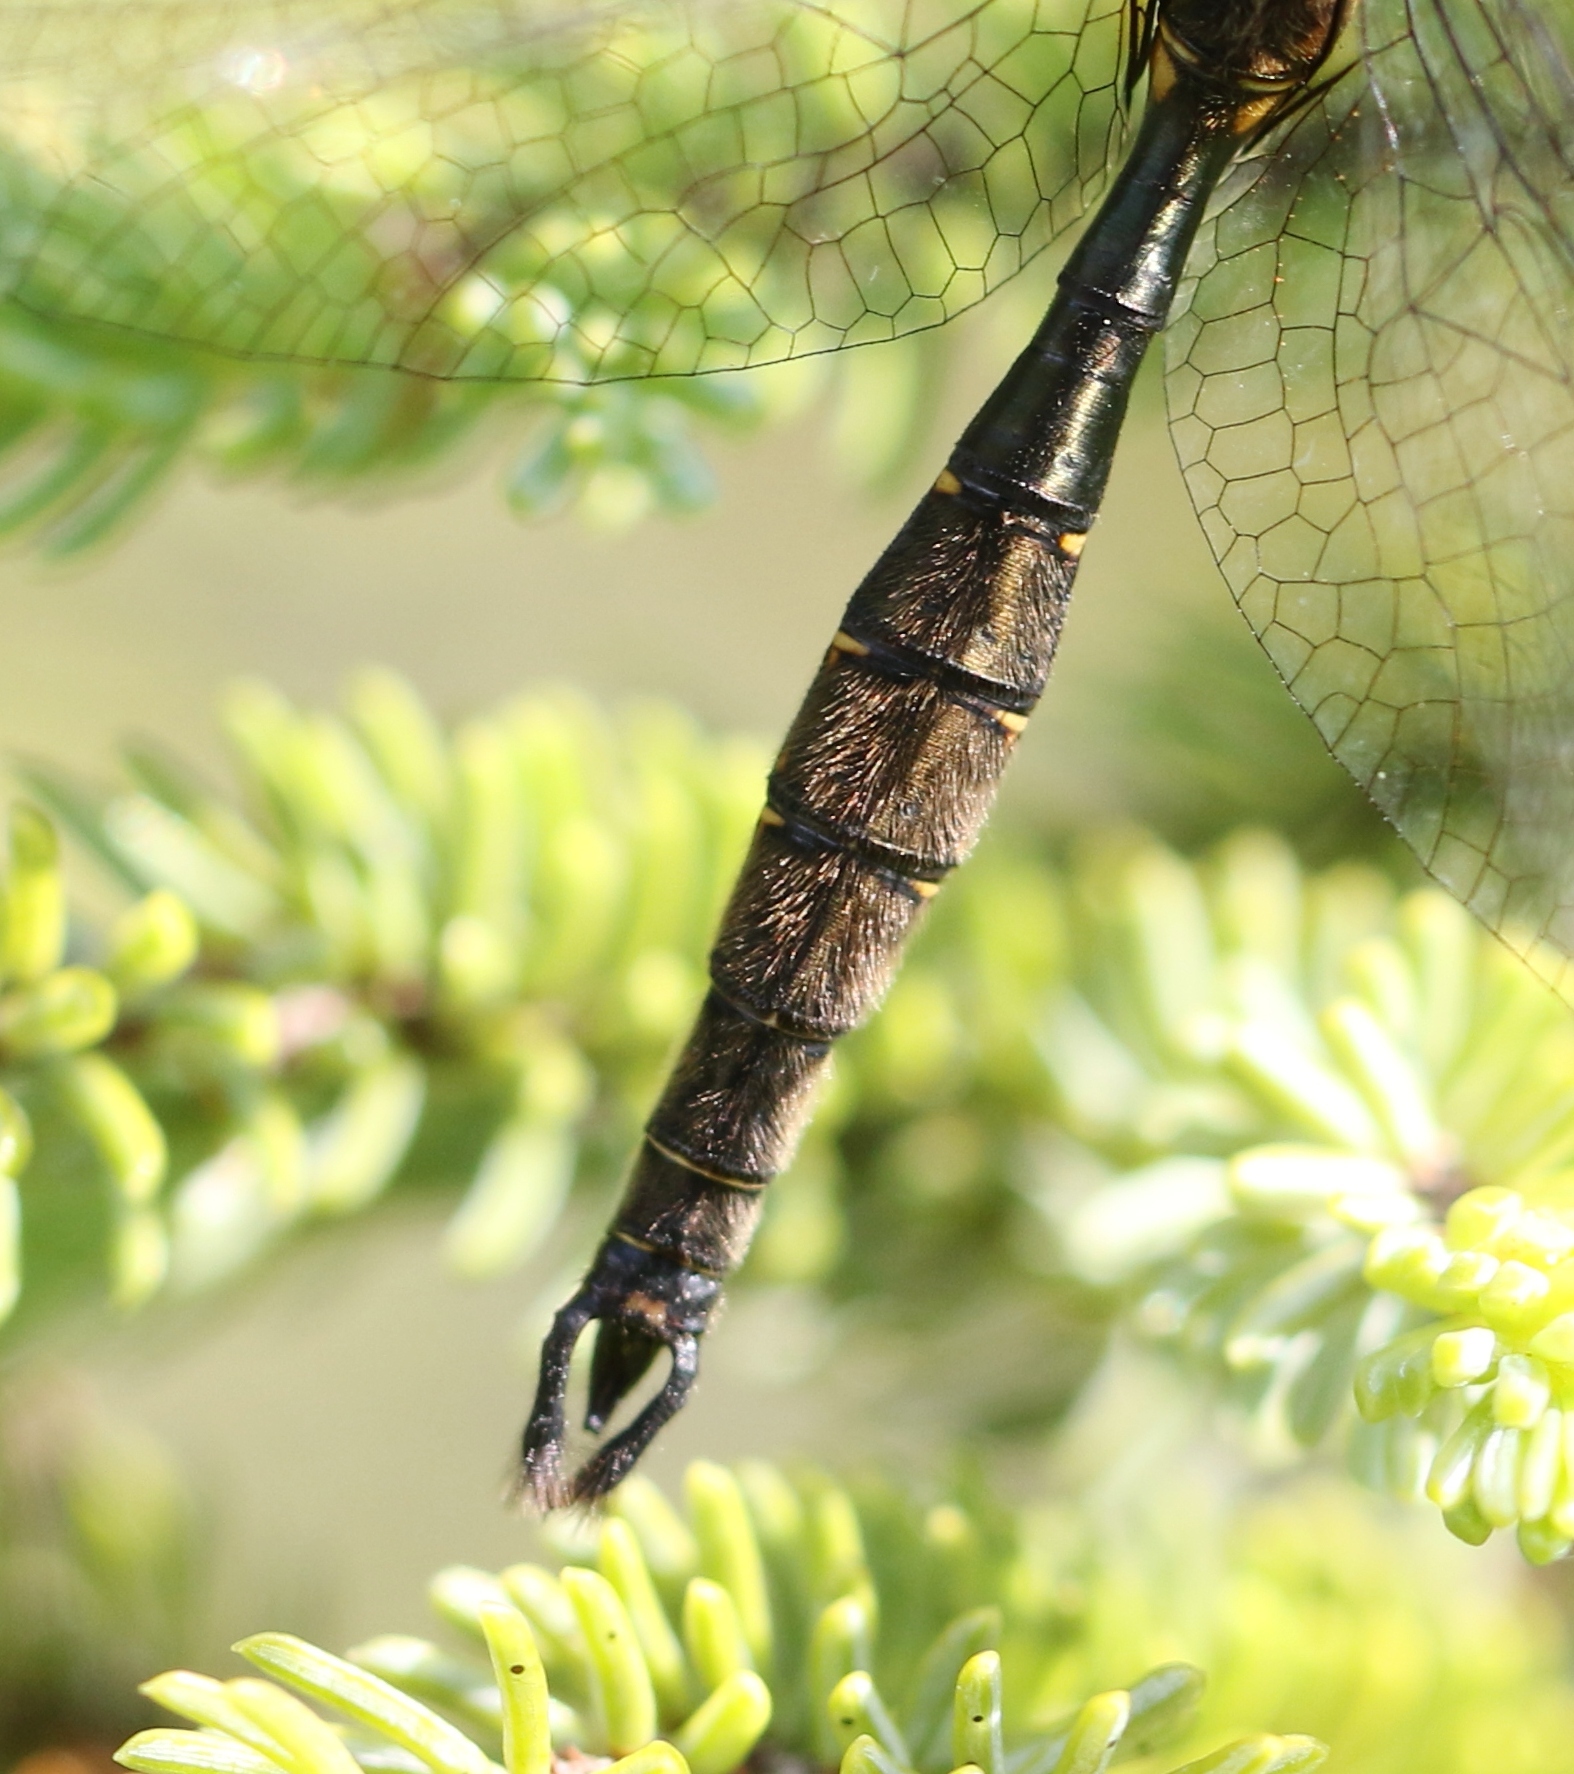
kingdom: Animalia
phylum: Arthropoda
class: Insecta
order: Odonata
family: Corduliidae
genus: Somatochlora
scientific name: Somatochlora forcipata
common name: Forcipate emerald
